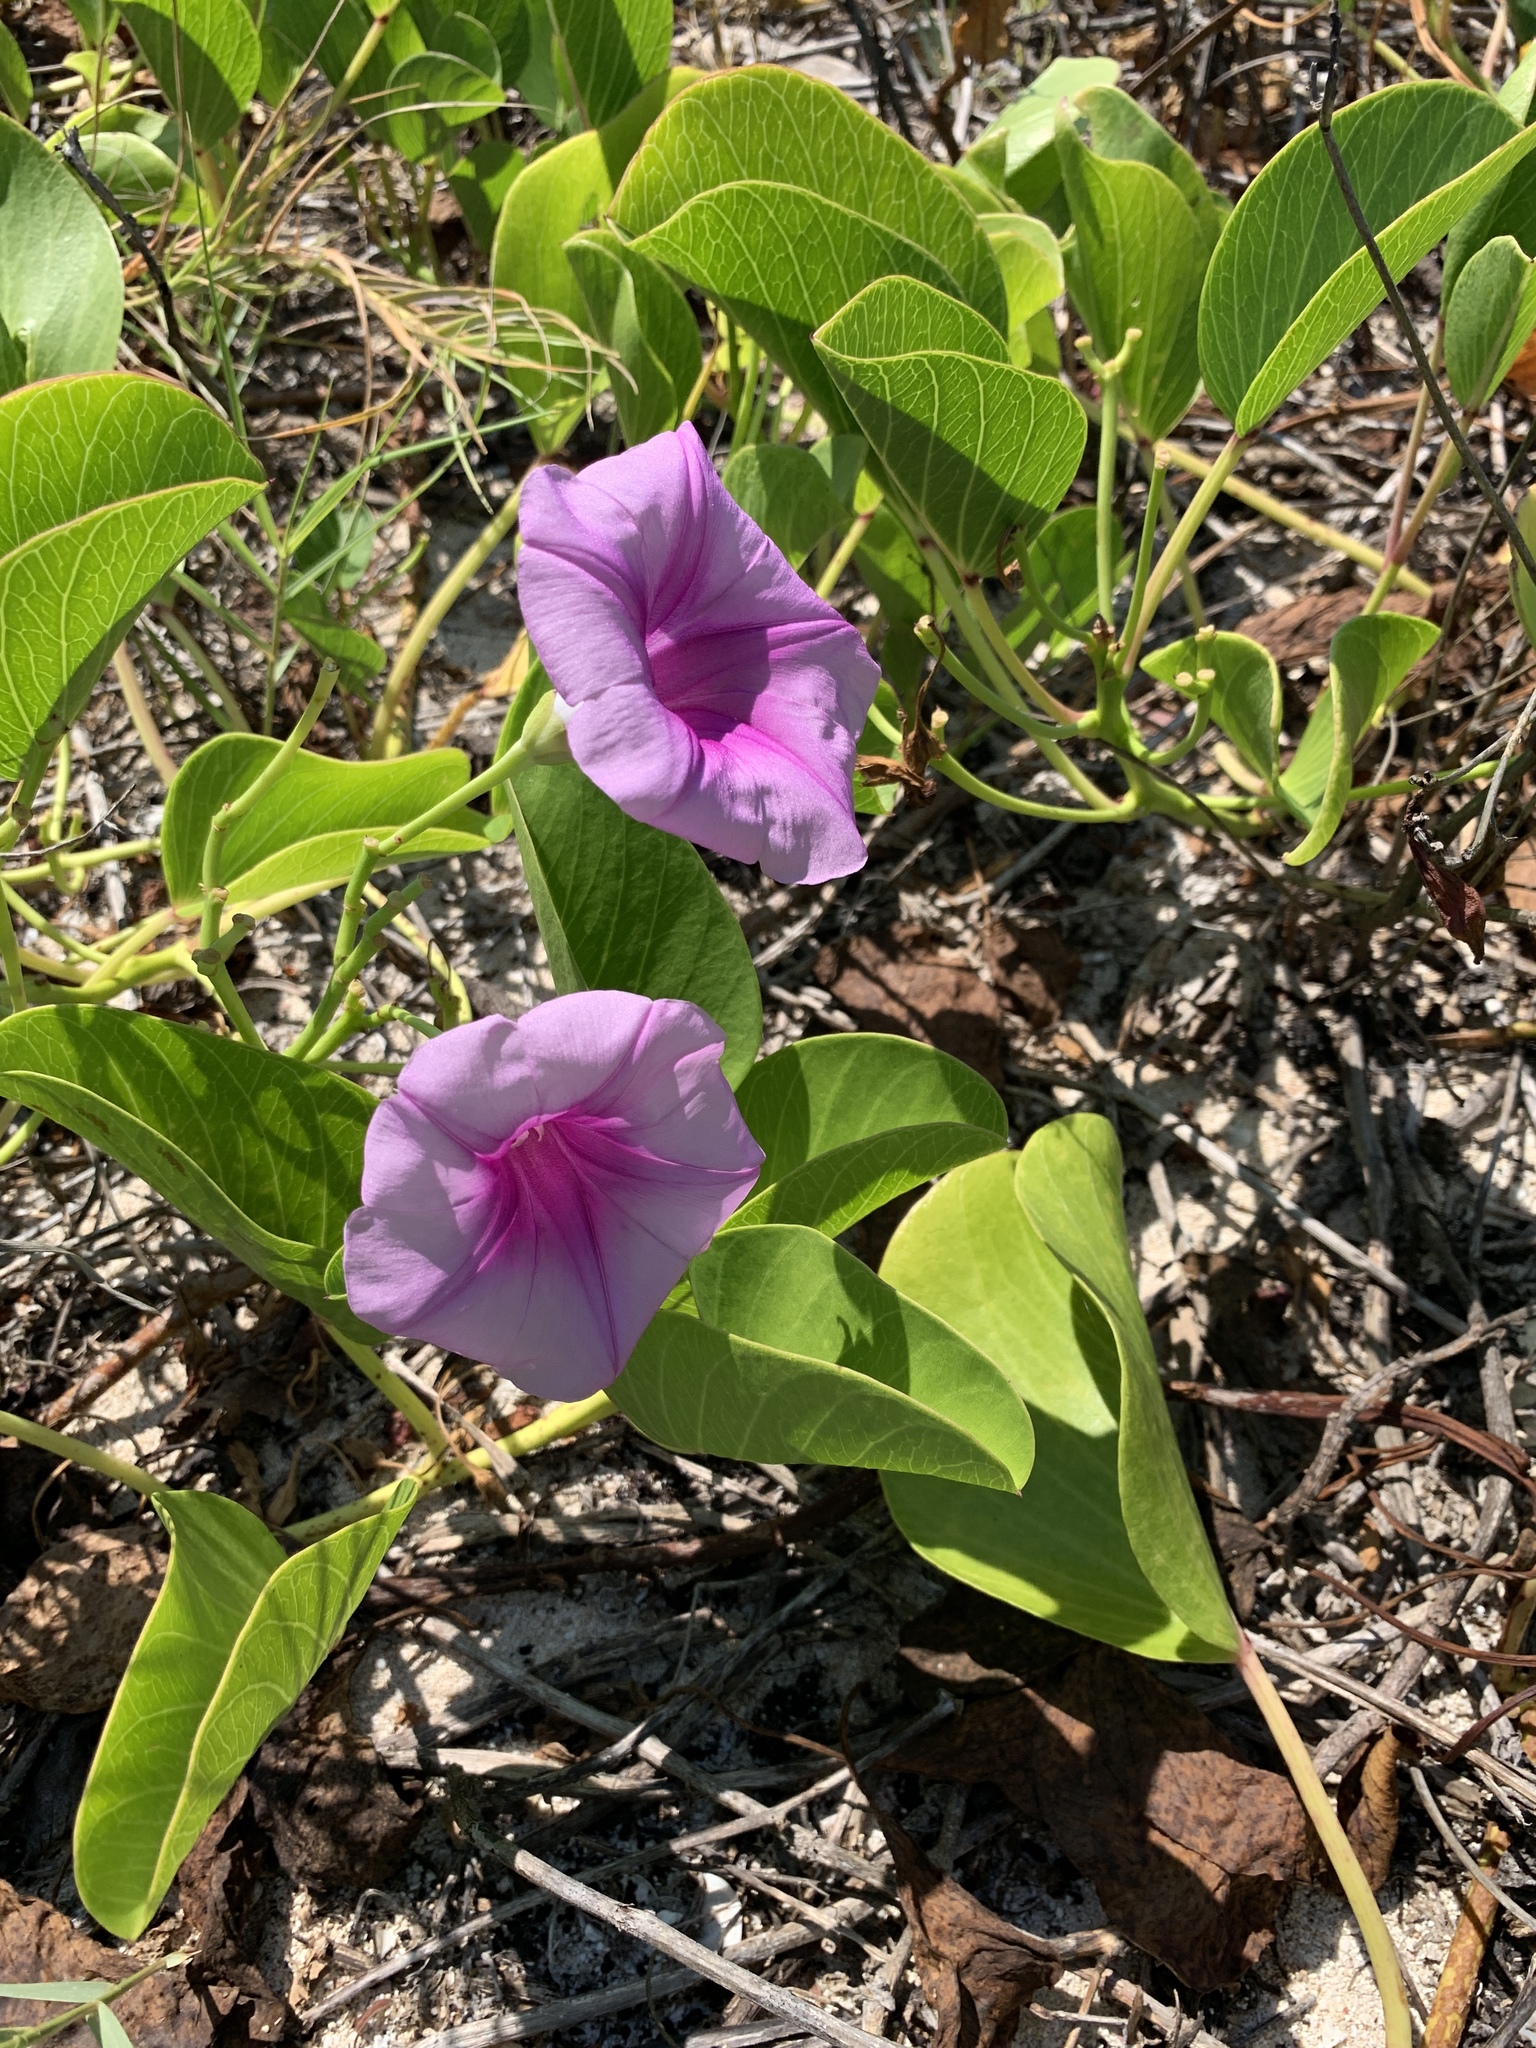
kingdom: Plantae
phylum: Tracheophyta
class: Magnoliopsida
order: Solanales
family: Convolvulaceae
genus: Ipomoea
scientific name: Ipomoea pes-caprae
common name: Beach morning glory
